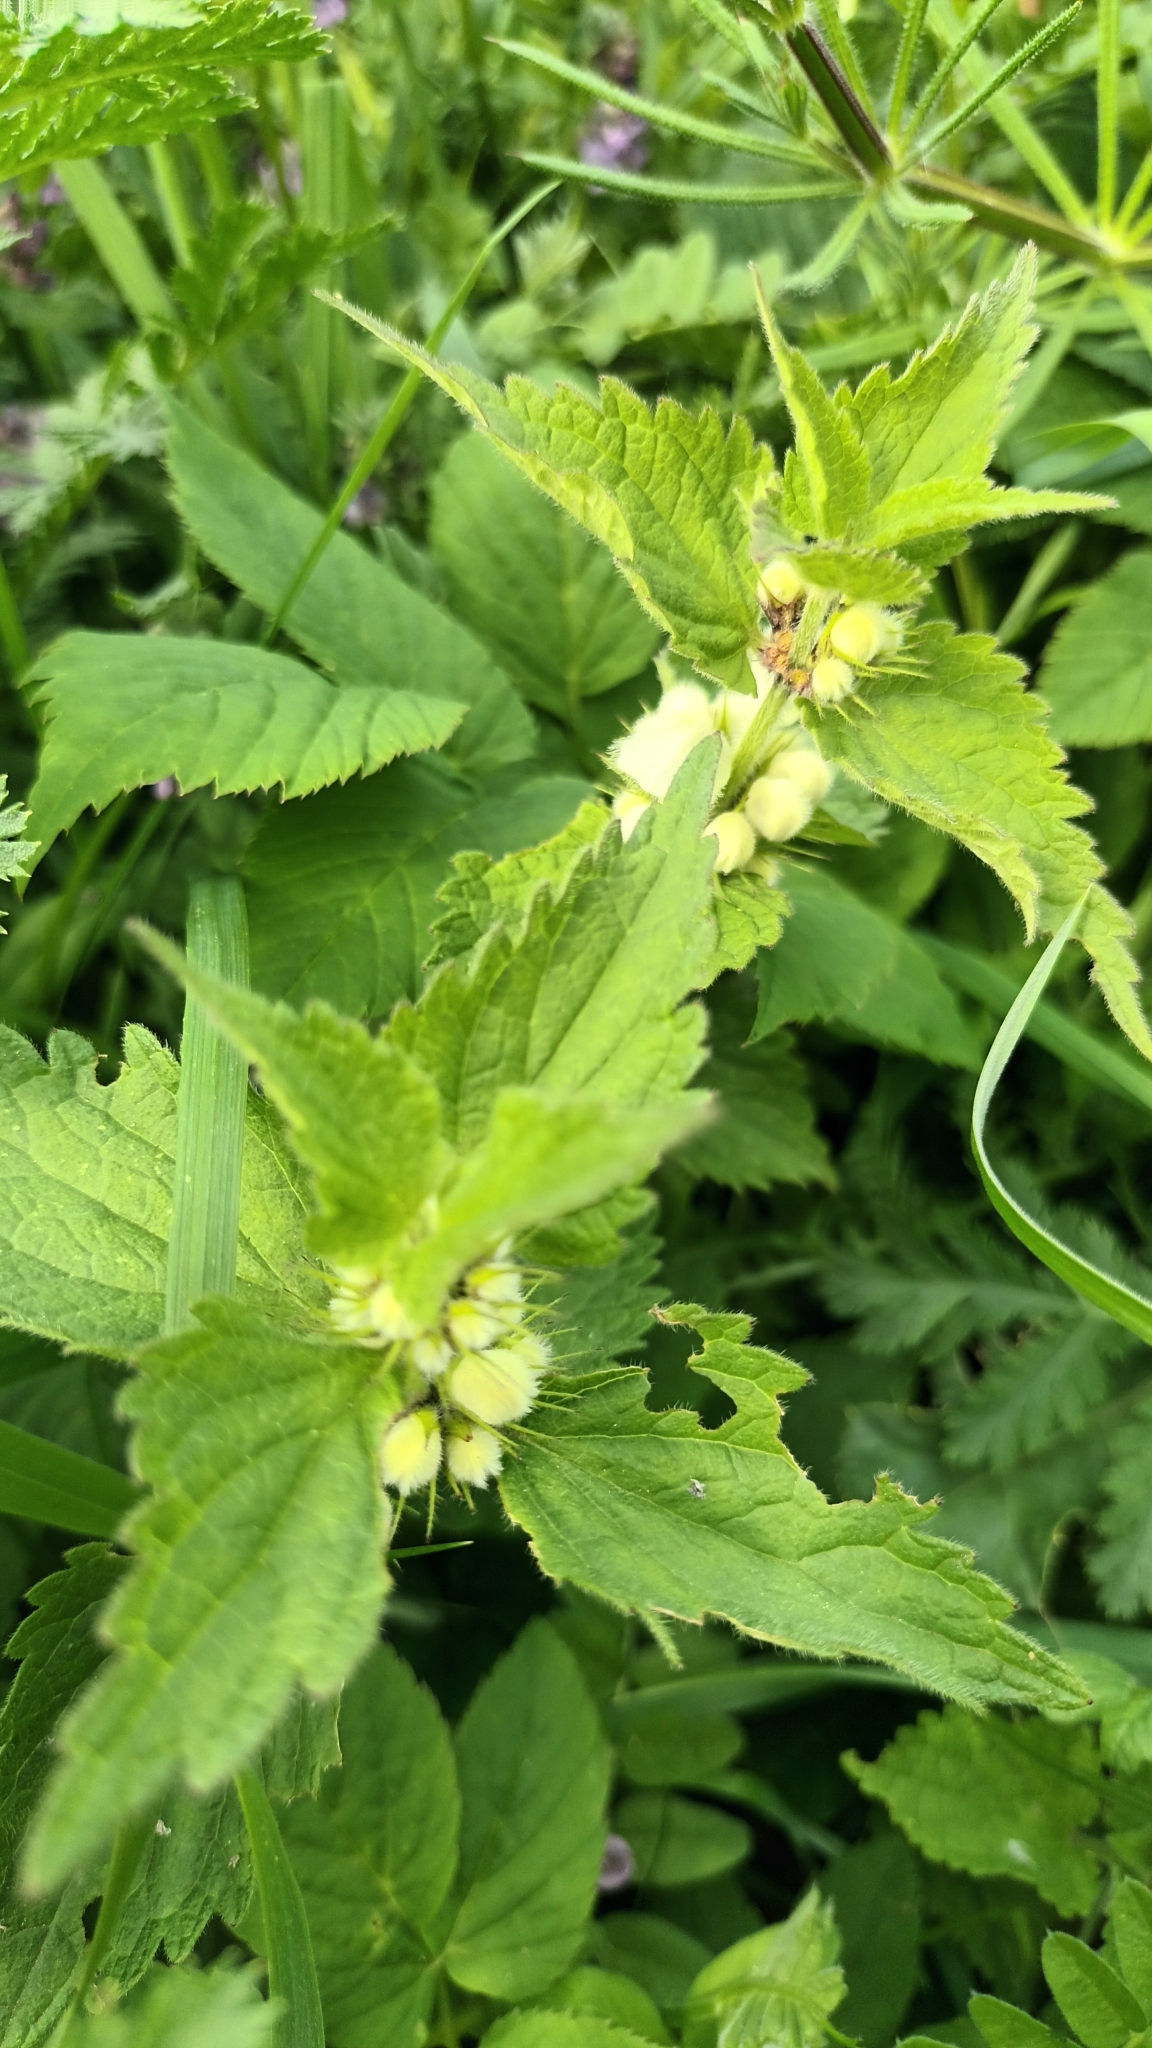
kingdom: Plantae
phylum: Tracheophyta
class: Magnoliopsida
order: Lamiales
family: Lamiaceae
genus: Lamium
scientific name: Lamium album
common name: White dead-nettle
